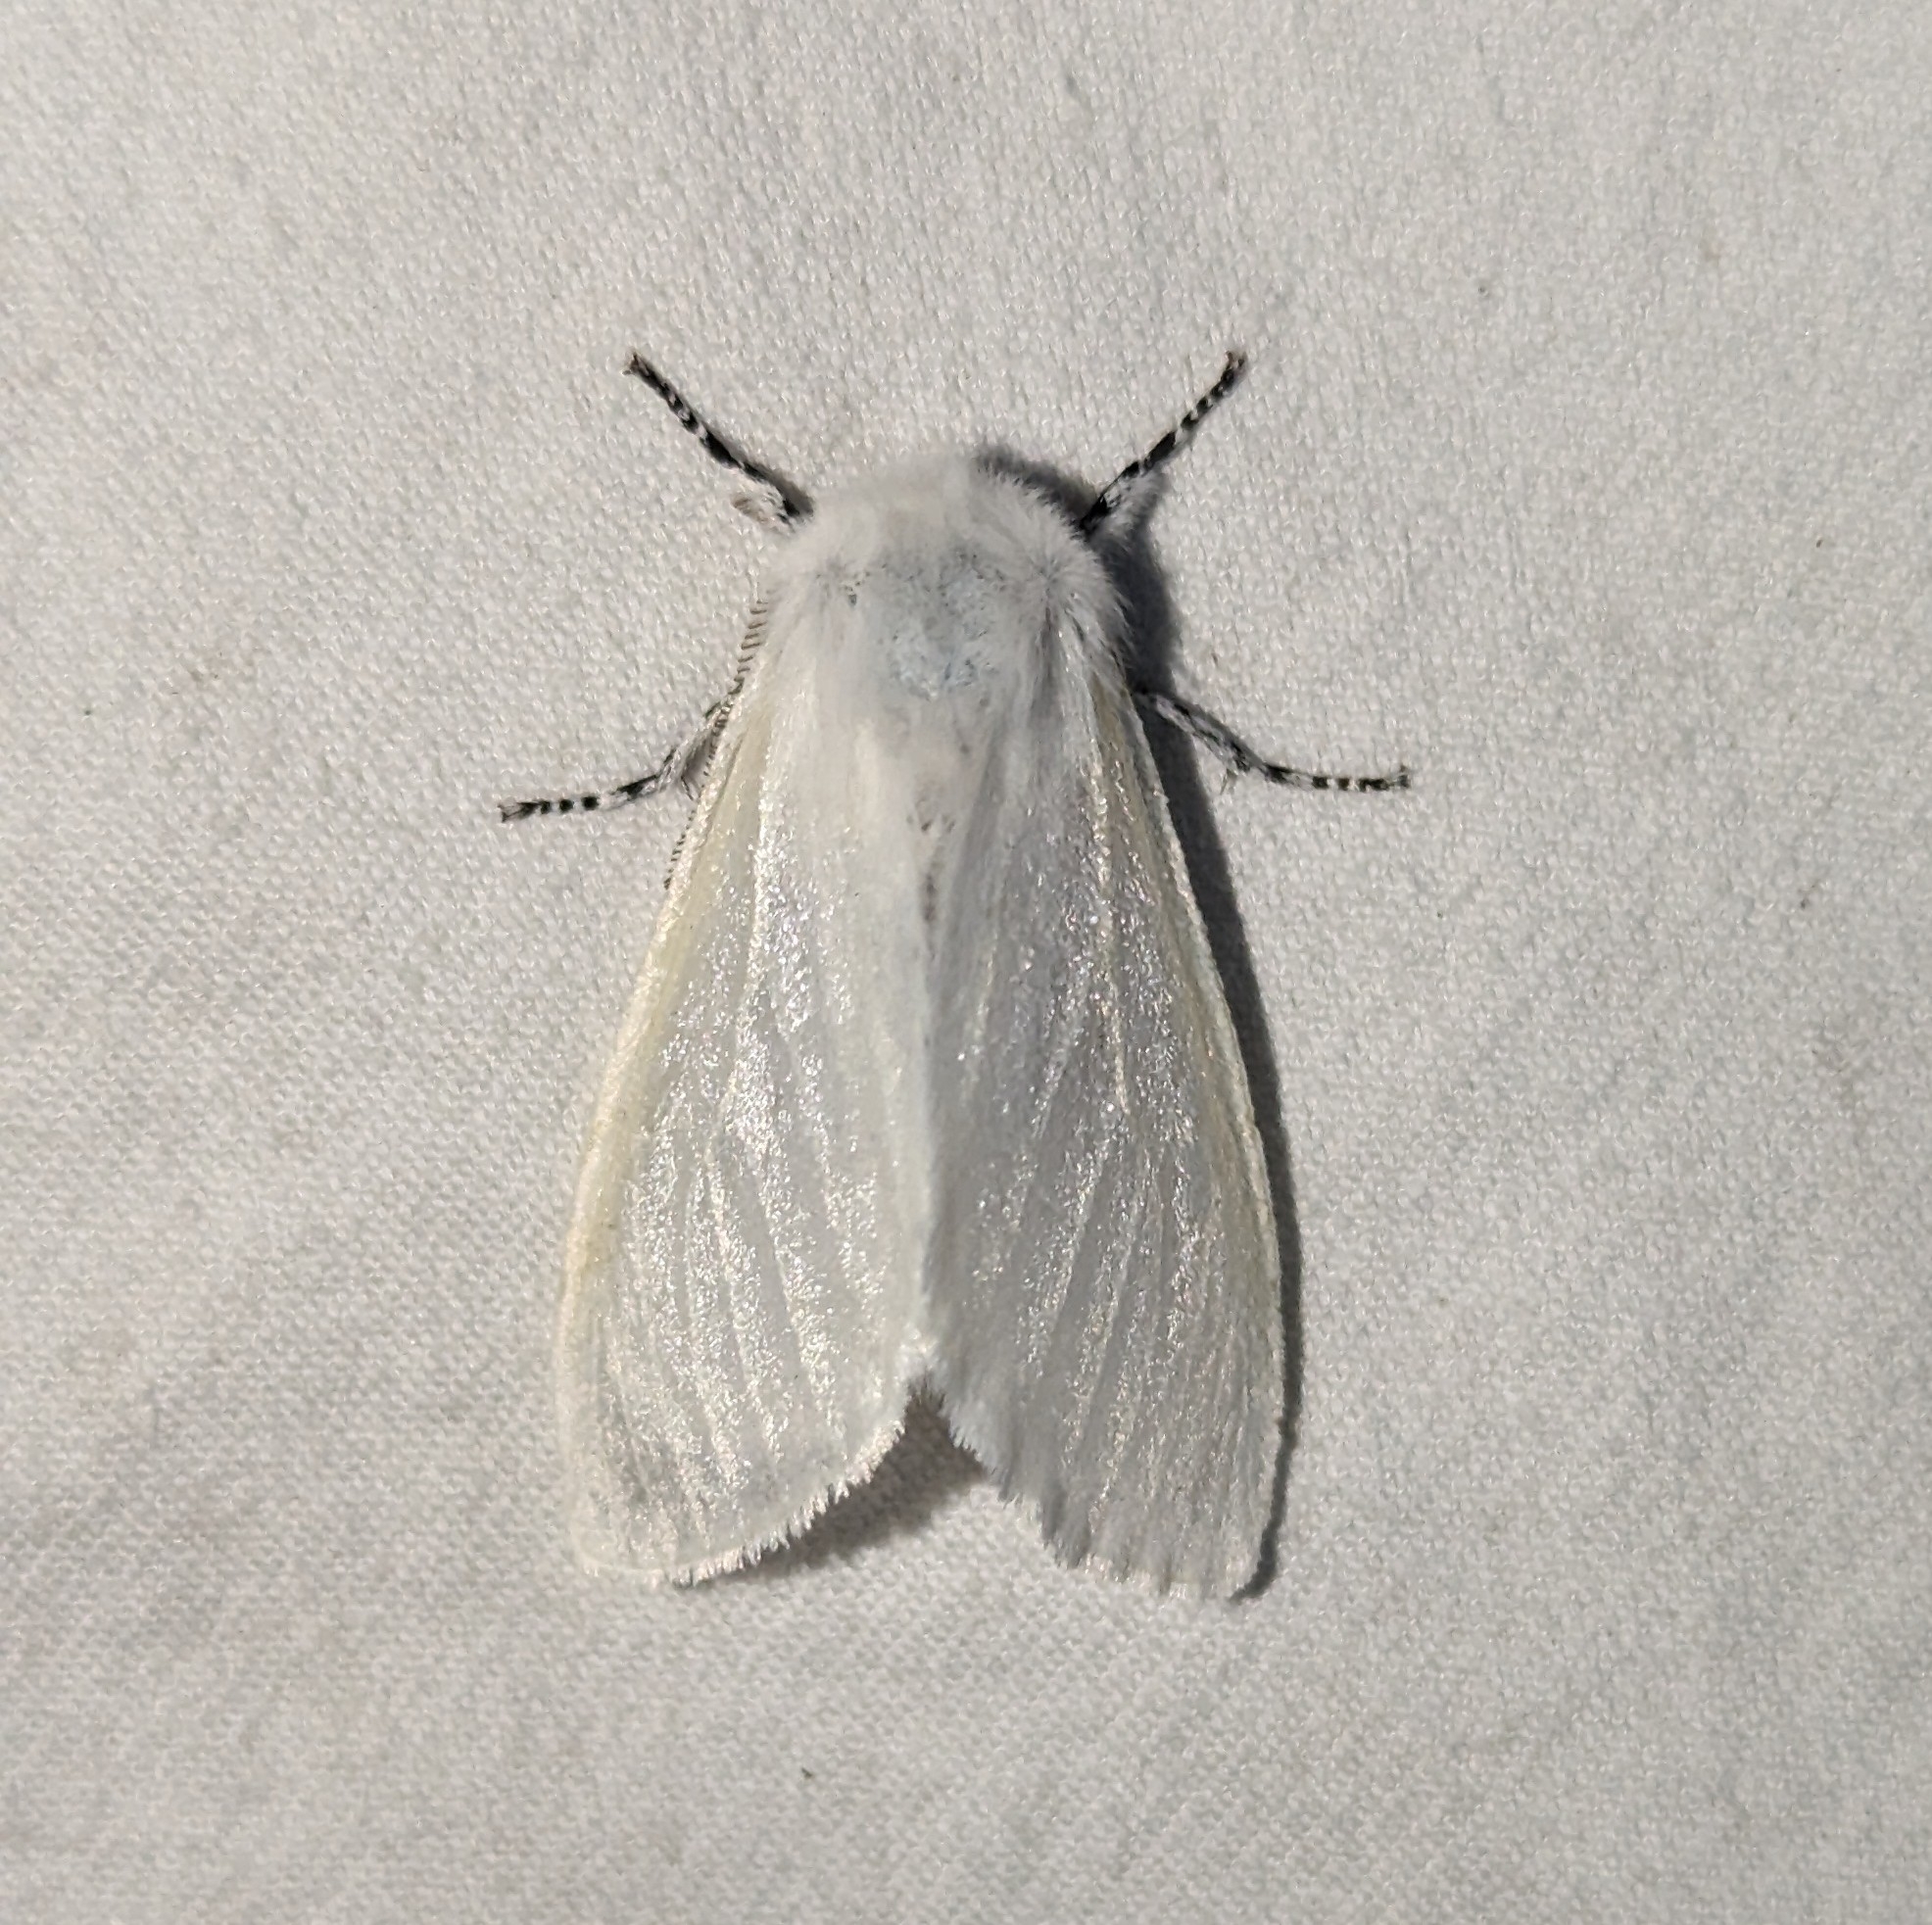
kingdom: Animalia
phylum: Arthropoda
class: Insecta
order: Lepidoptera
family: Erebidae
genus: Leucoma
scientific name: Leucoma salicis
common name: White satin moth
